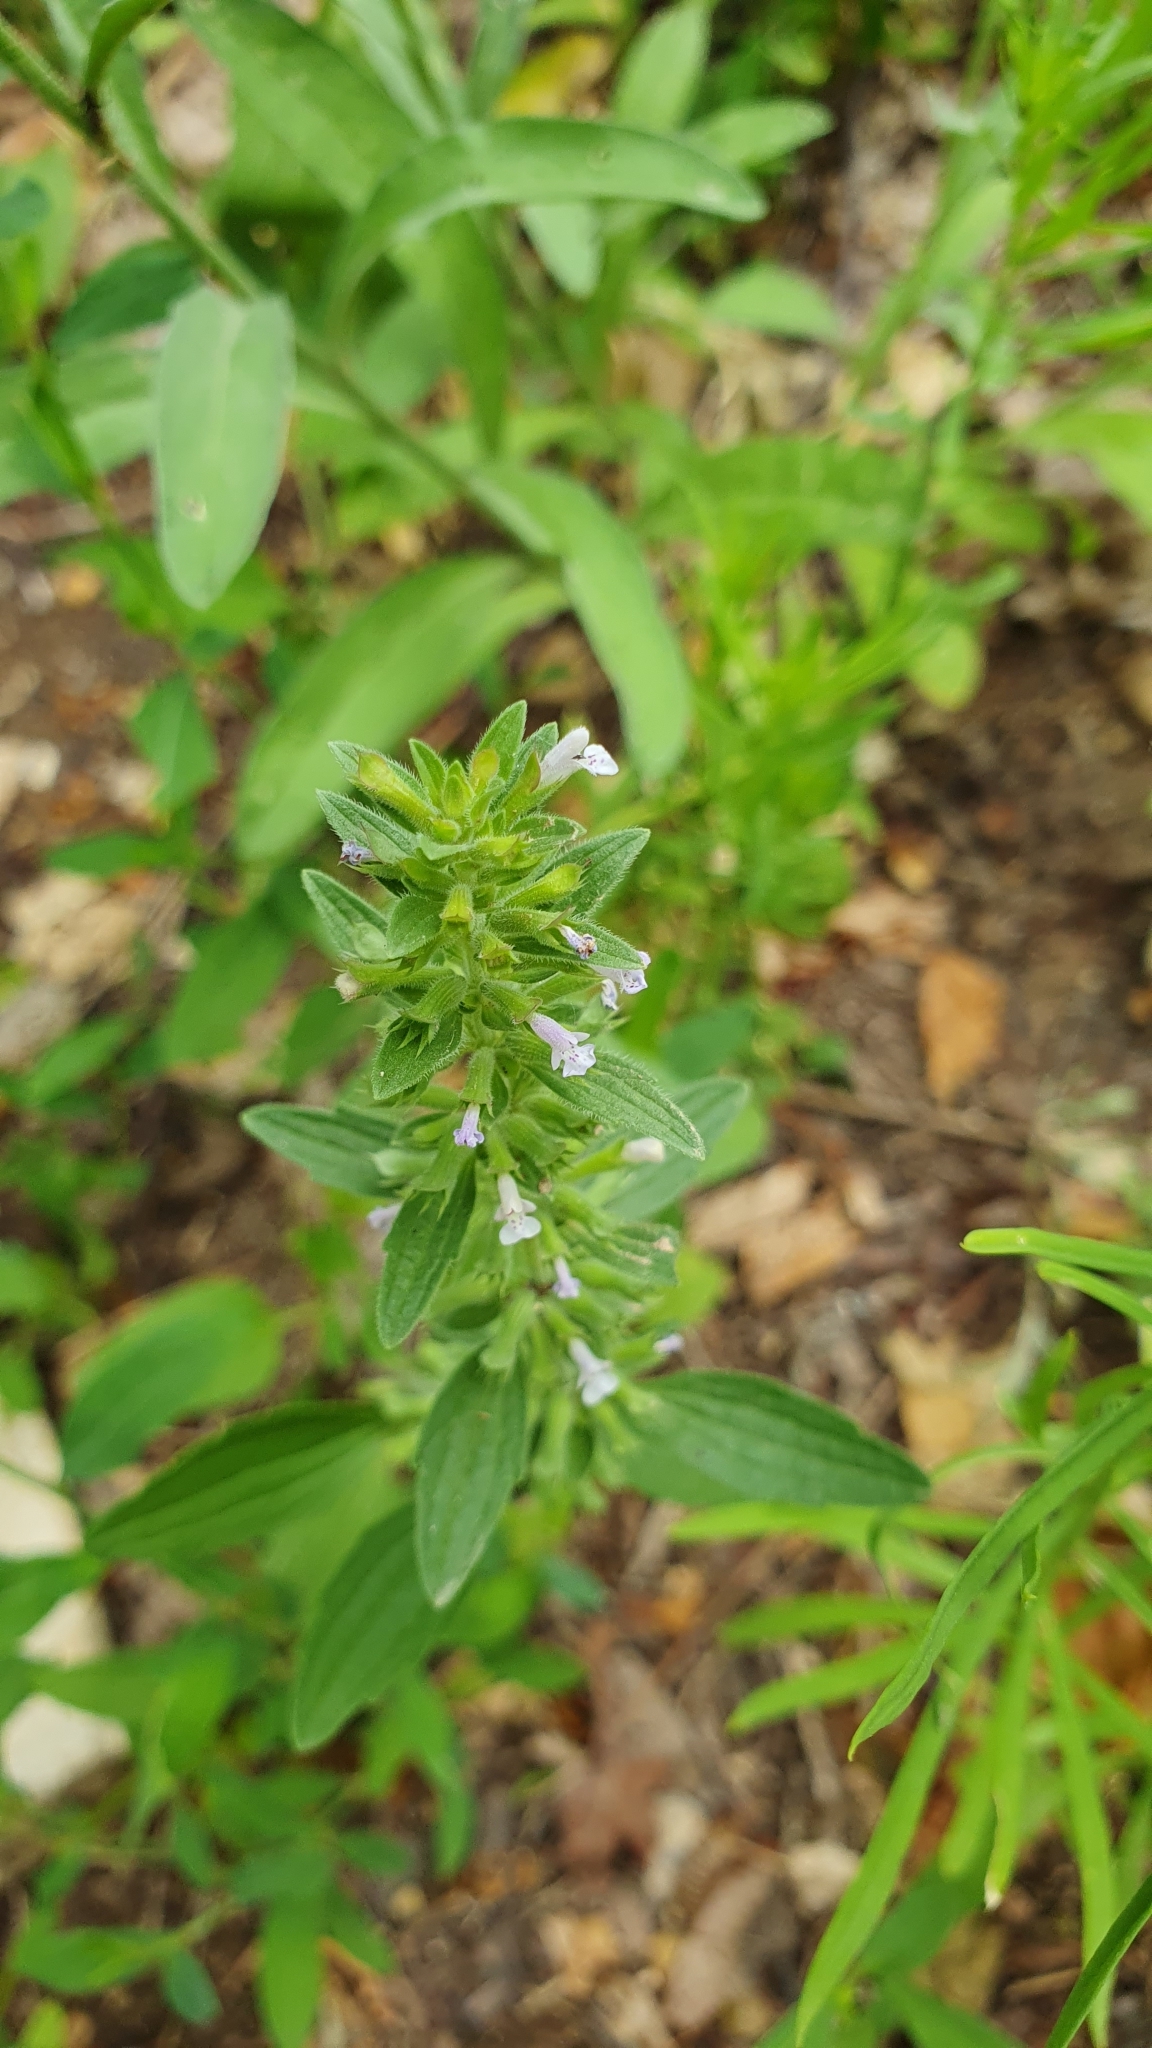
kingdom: Plantae
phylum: Tracheophyta
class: Magnoliopsida
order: Lamiales
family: Lamiaceae
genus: Dracocephalum
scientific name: Dracocephalum thymiflorum
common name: Thymeleaf dragonhead
